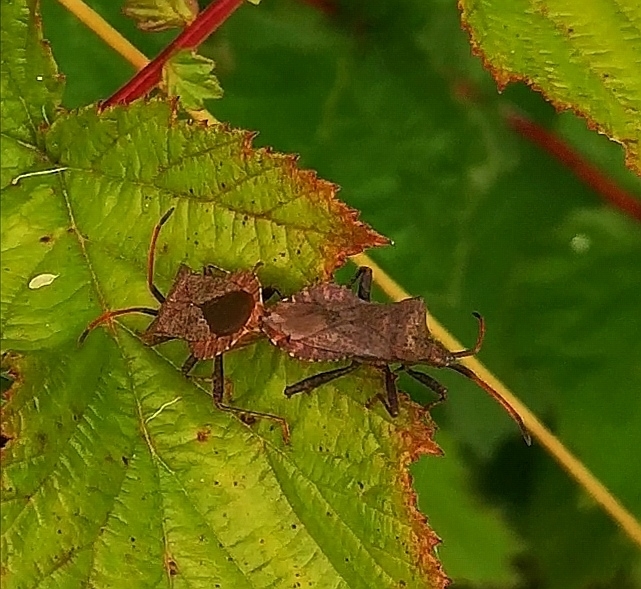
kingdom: Animalia
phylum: Arthropoda
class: Insecta
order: Hemiptera
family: Coreidae
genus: Coreus
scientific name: Coreus marginatus
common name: Dock bug
